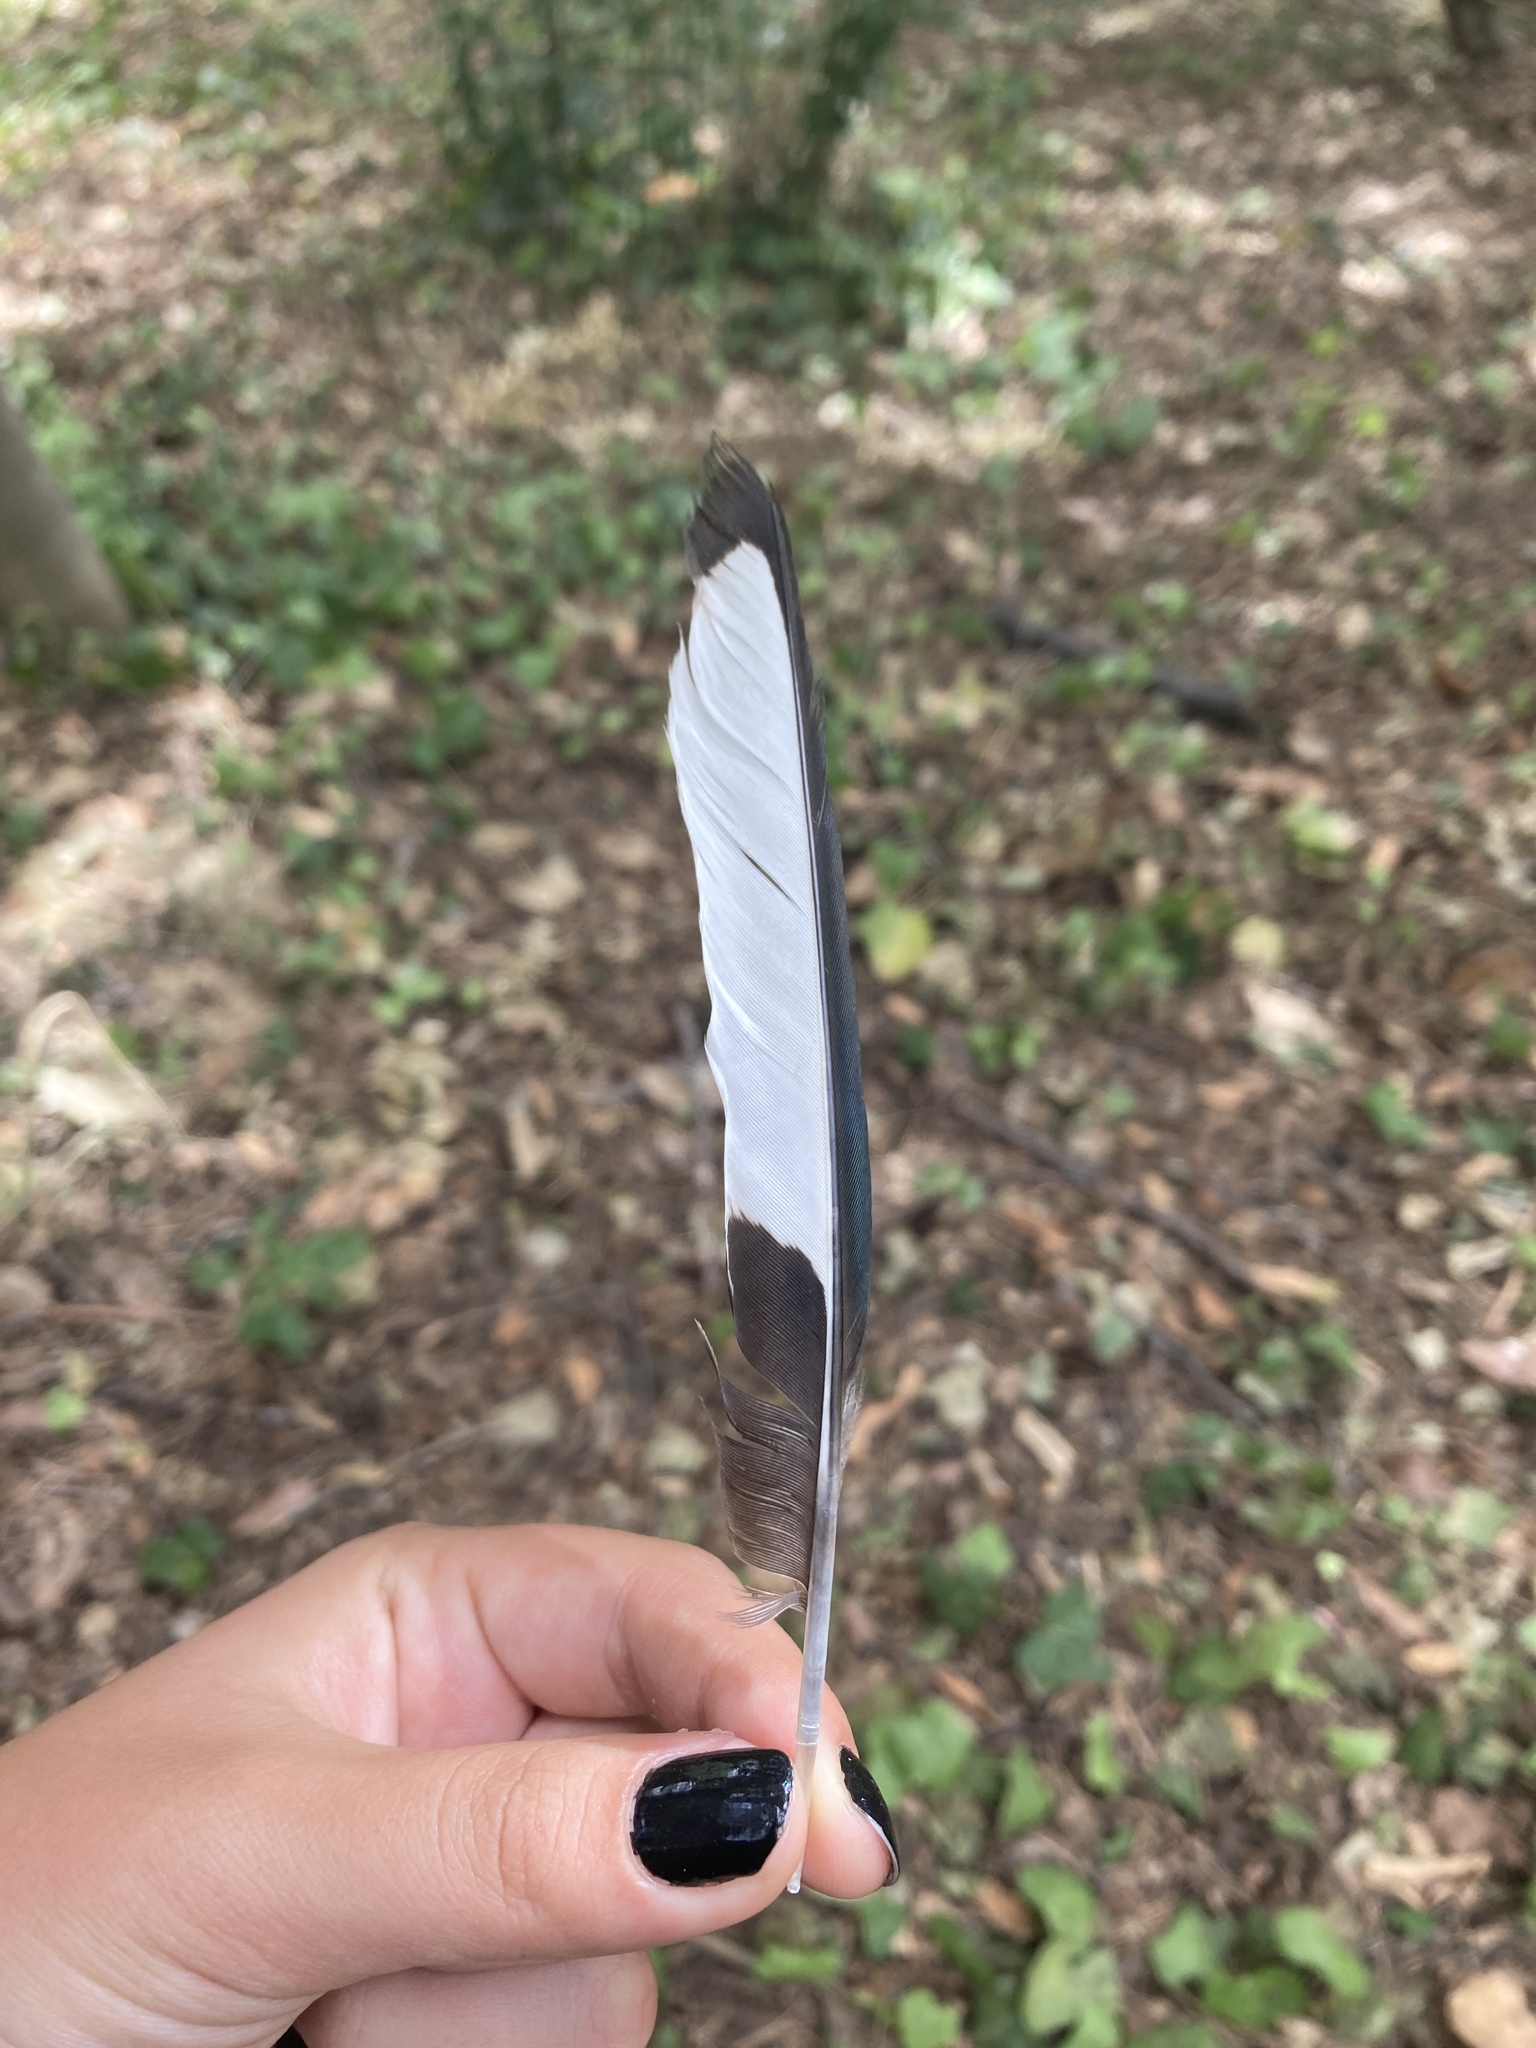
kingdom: Animalia
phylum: Chordata
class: Aves
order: Passeriformes
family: Corvidae
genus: Pica
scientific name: Pica pica
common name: Eurasian magpie
